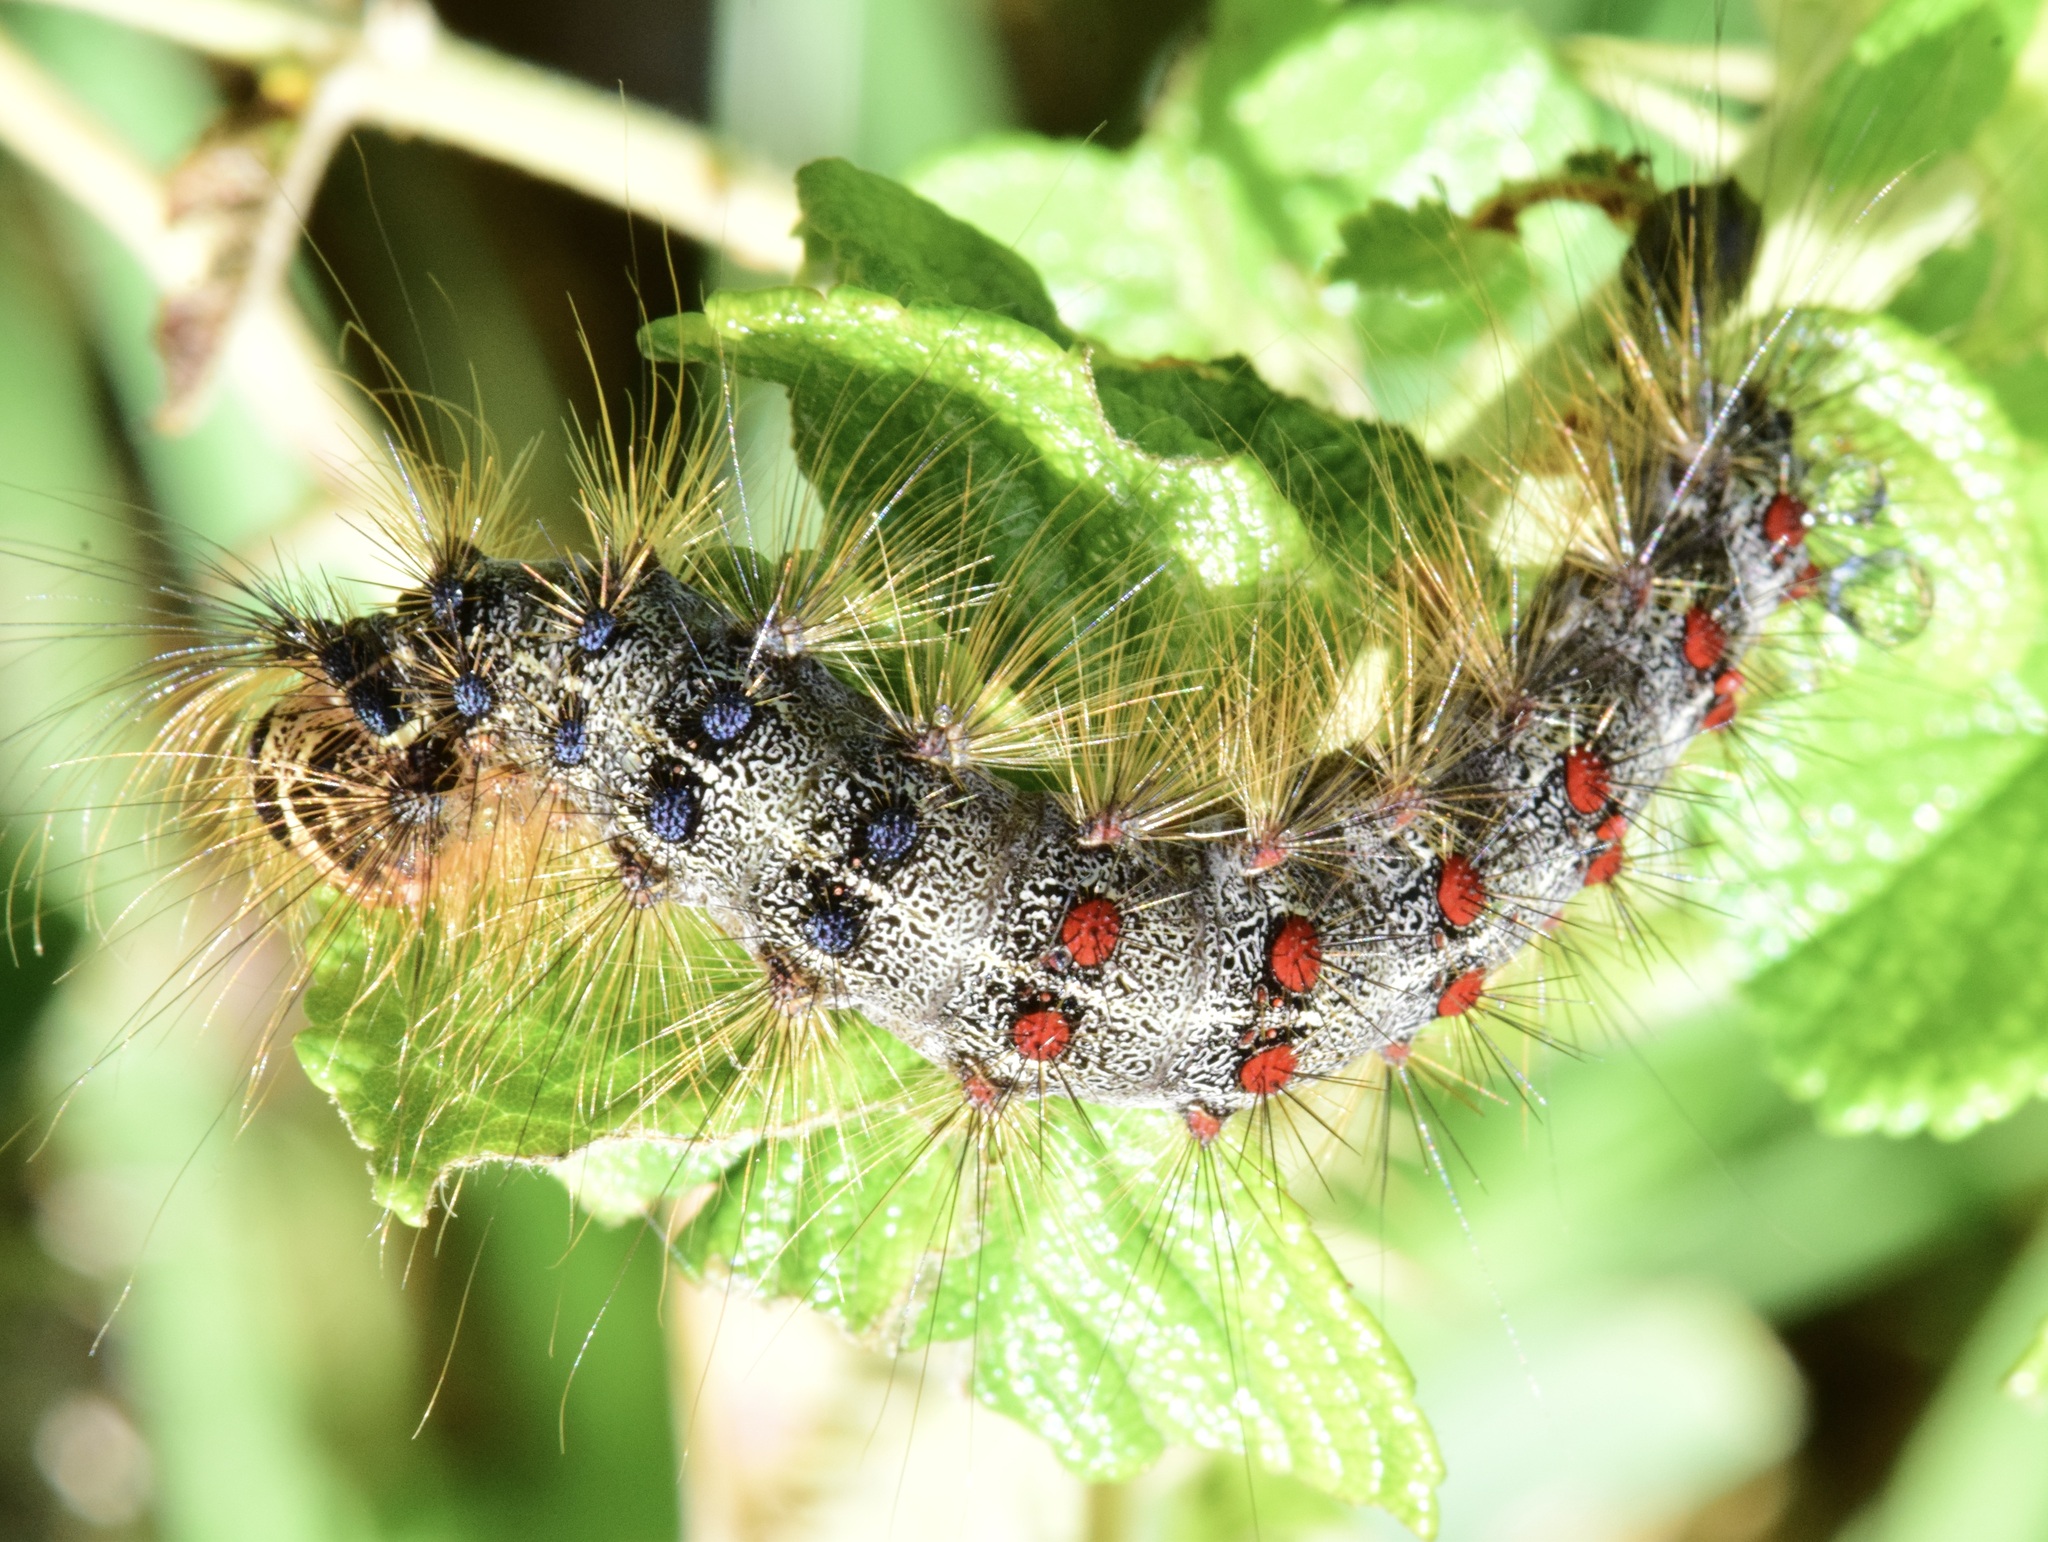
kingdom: Animalia
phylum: Arthropoda
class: Insecta
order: Lepidoptera
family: Erebidae
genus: Lymantria
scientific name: Lymantria dispar
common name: Gypsy moth
